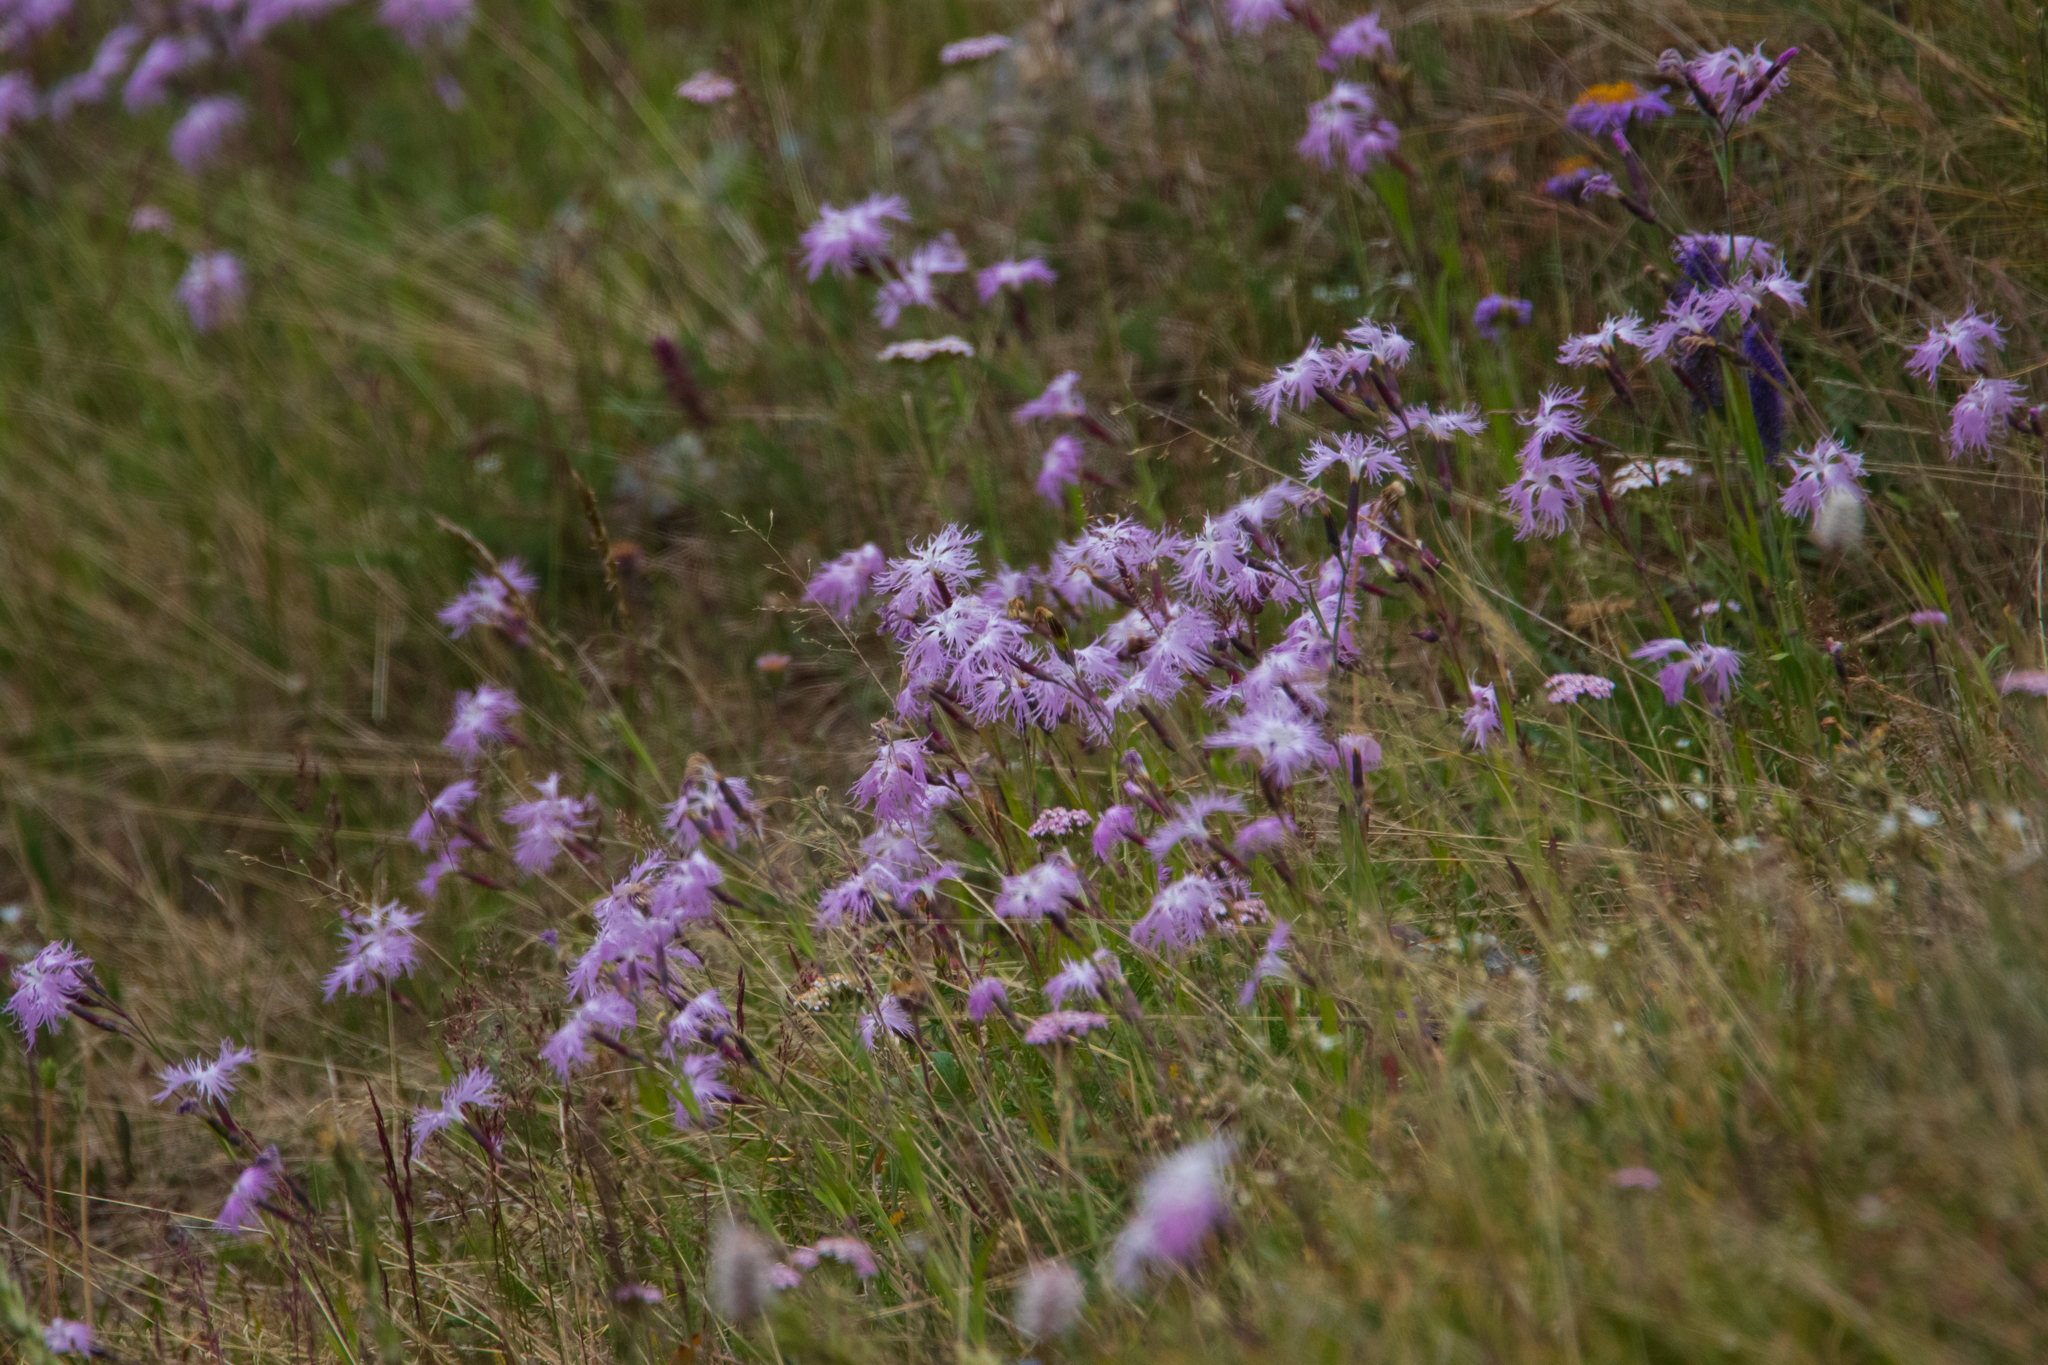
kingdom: Plantae
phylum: Tracheophyta
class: Magnoliopsida
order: Caryophyllales
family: Caryophyllaceae
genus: Dianthus
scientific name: Dianthus superbus
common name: Fringed pink
